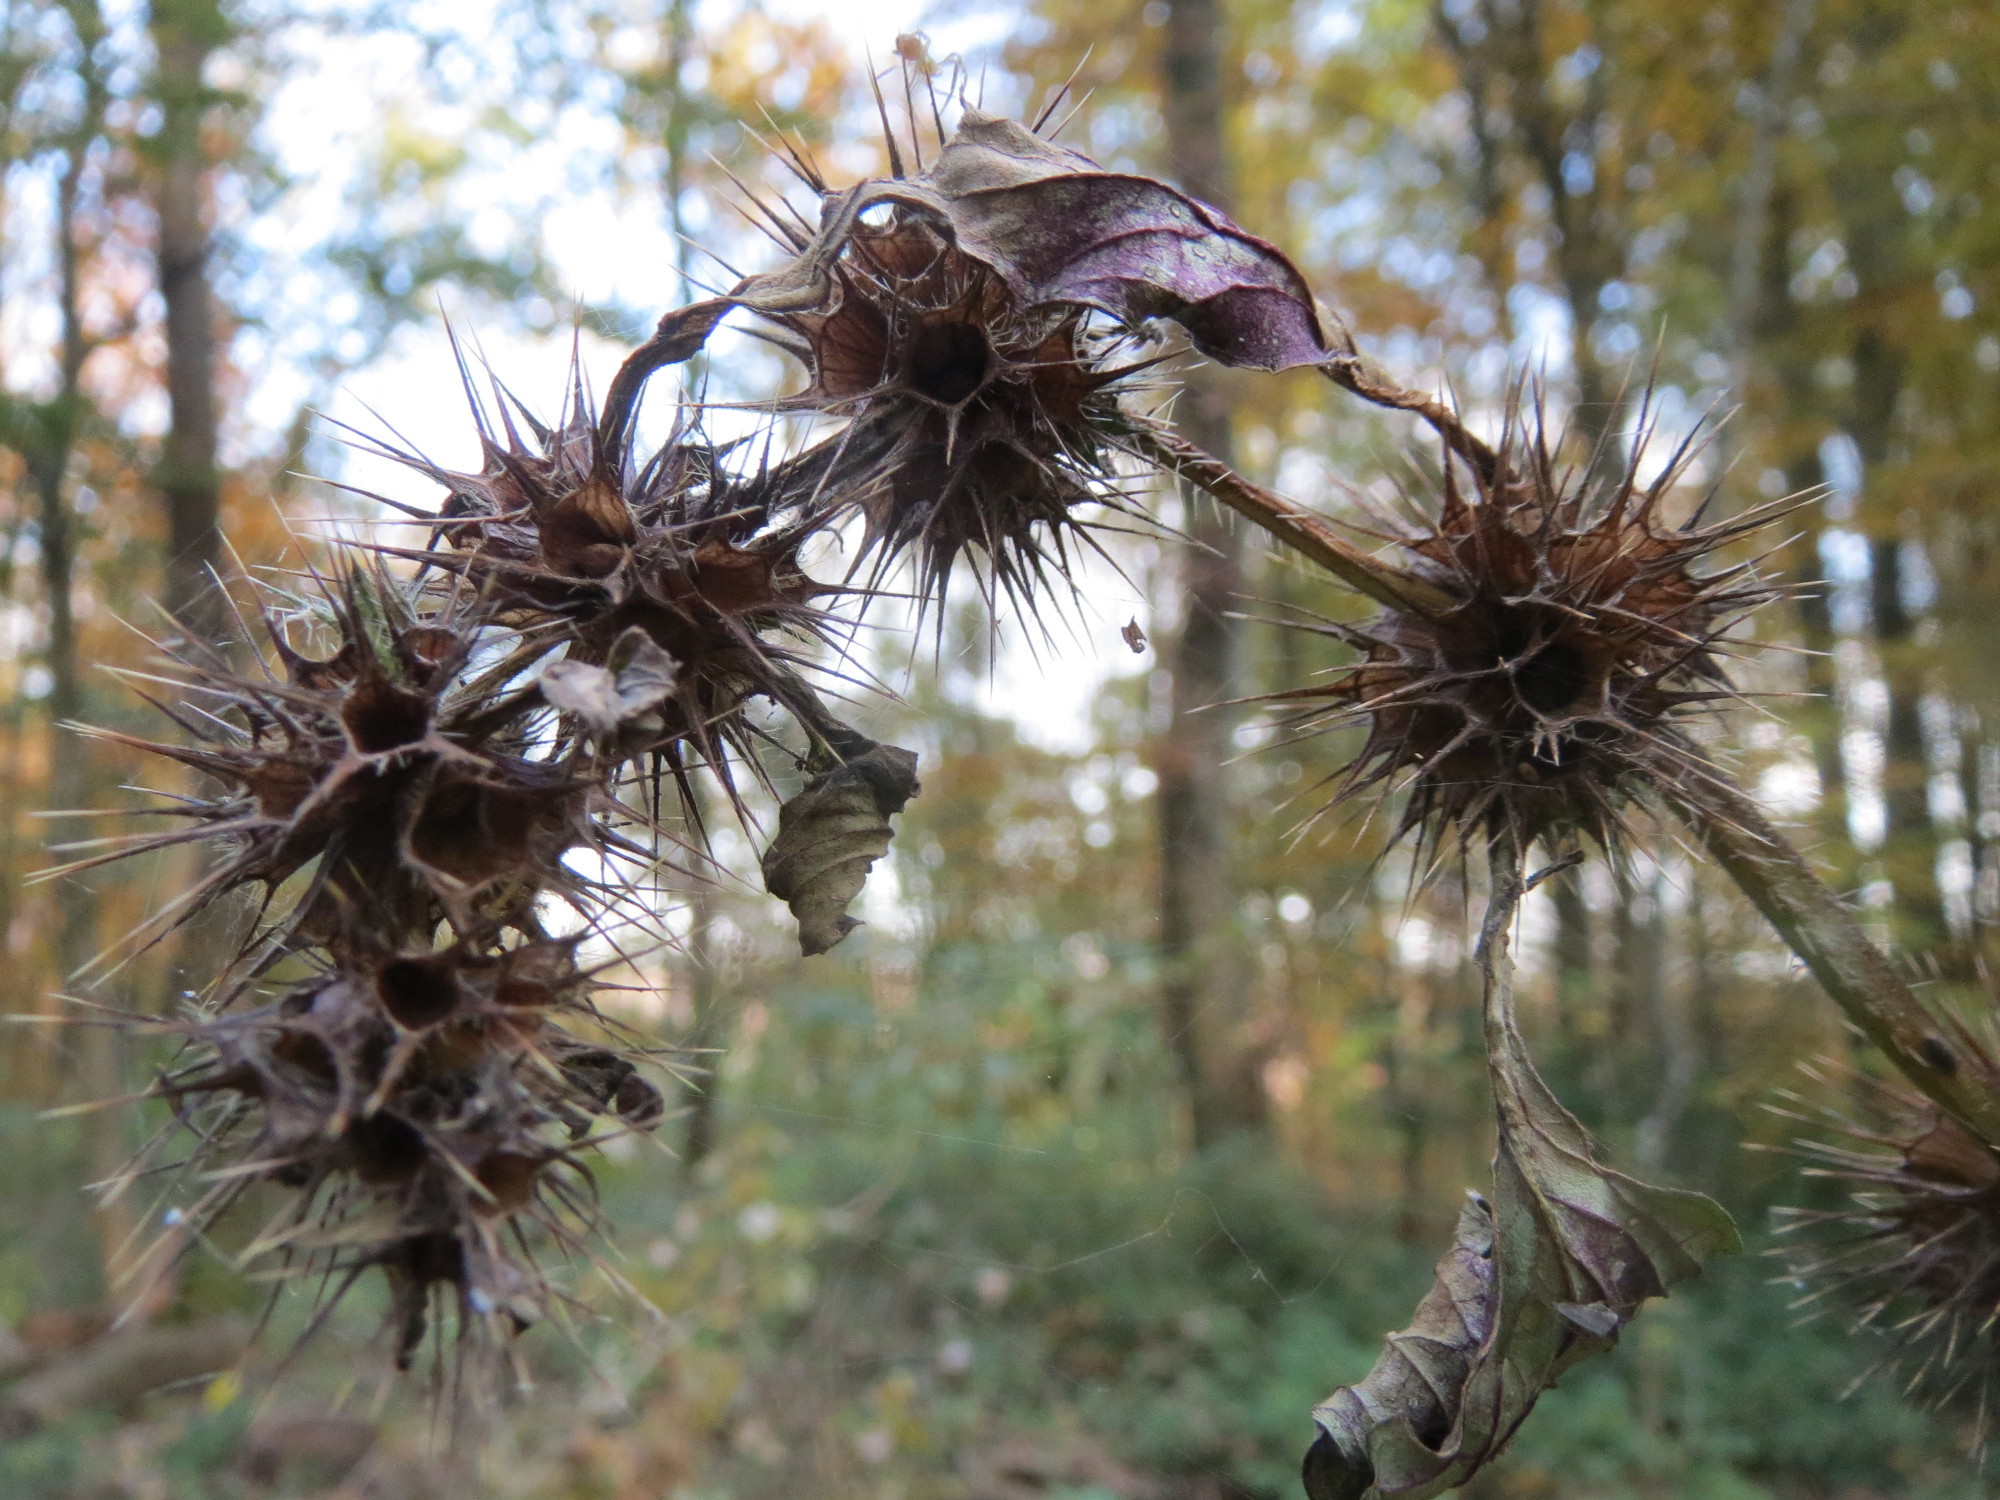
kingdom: Plantae
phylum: Tracheophyta
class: Magnoliopsida
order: Lamiales
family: Lamiaceae
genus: Galeopsis
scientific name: Galeopsis tetrahit
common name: Common hemp-nettle
